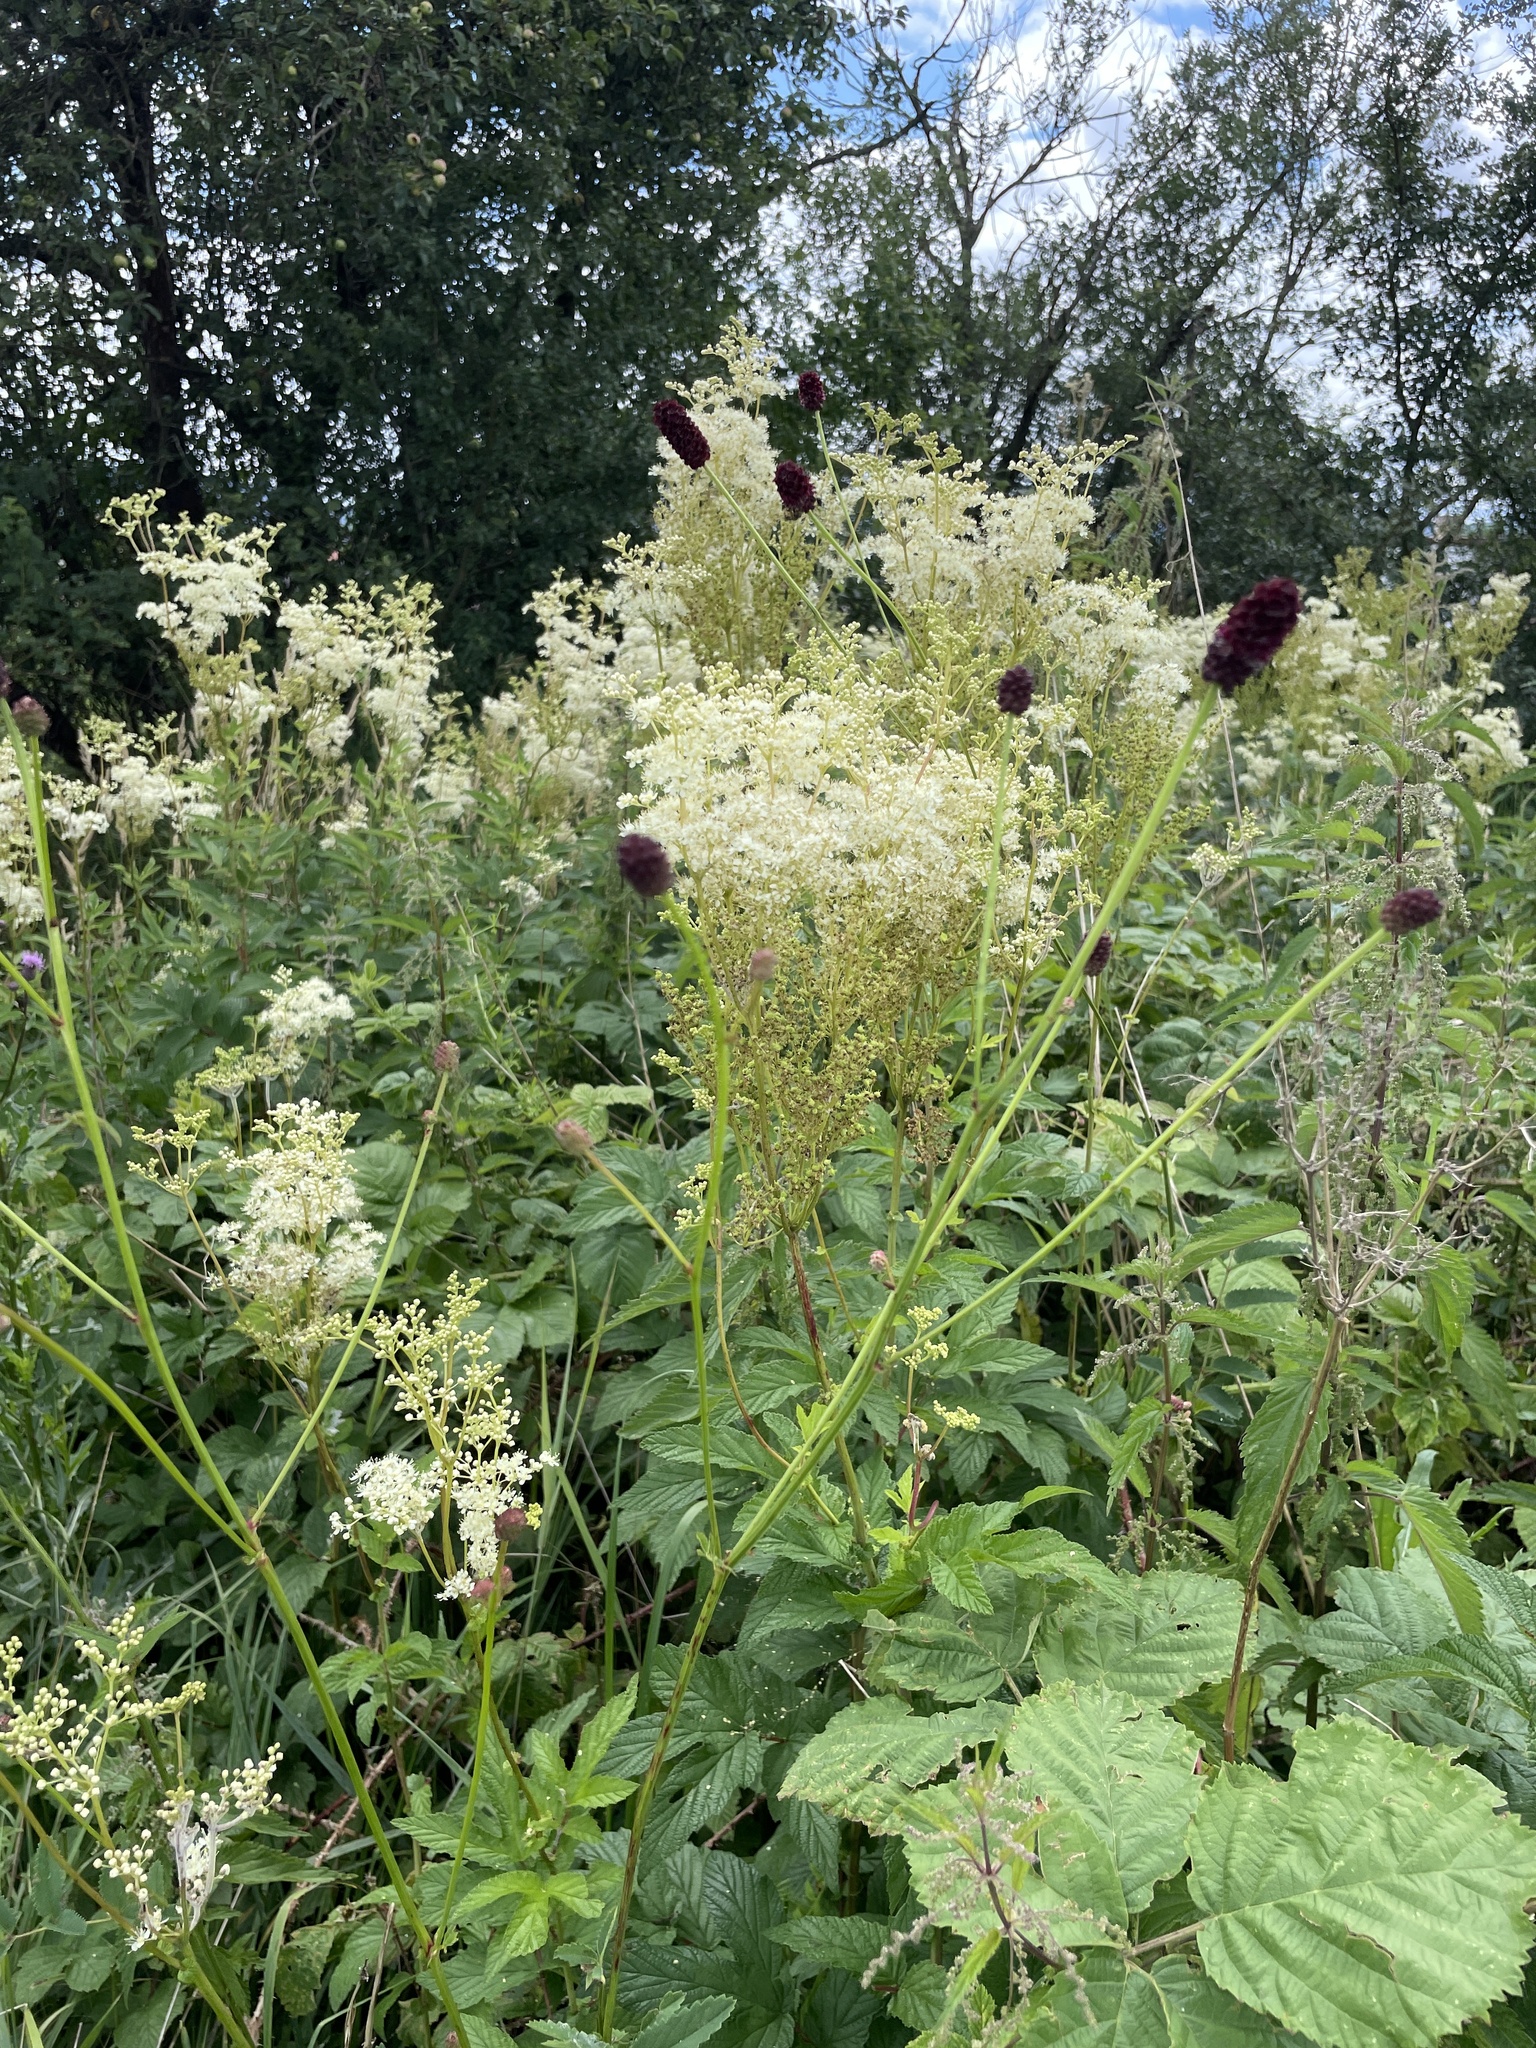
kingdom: Plantae
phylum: Tracheophyta
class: Magnoliopsida
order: Rosales
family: Rosaceae
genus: Sanguisorba
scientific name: Sanguisorba officinalis
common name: Great burnet
